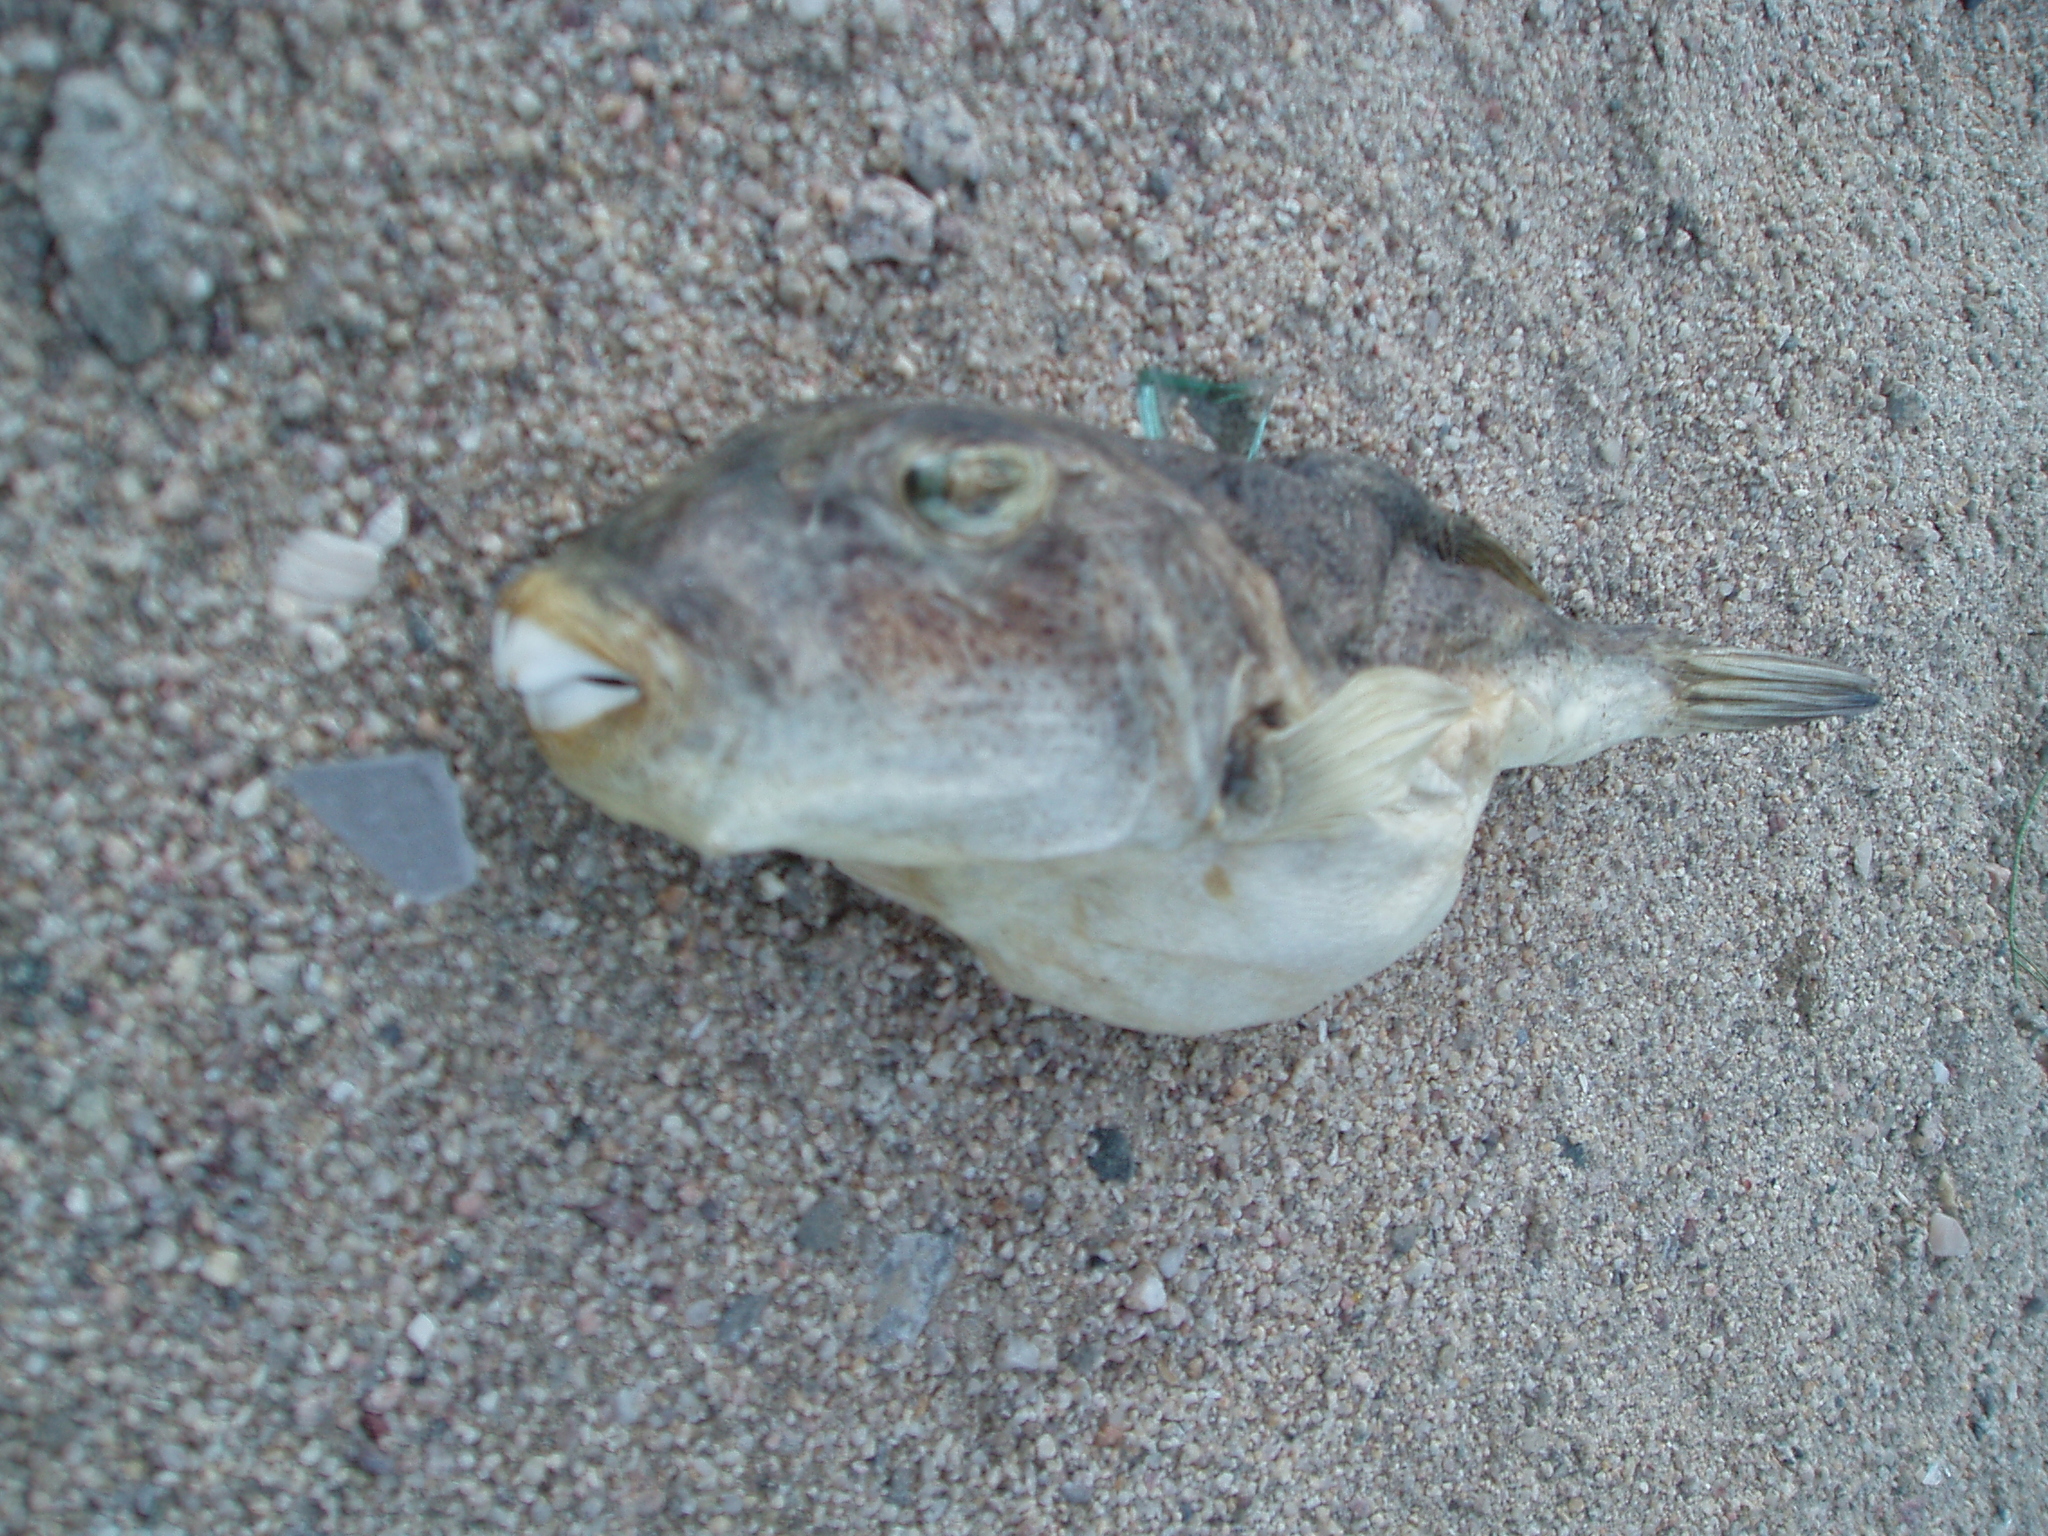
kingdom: Animalia
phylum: Chordata
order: Tetraodontiformes
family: Tetraodontidae
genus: Sphoeroides
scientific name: Sphoeroides annulatus
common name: Bullseye puffer
